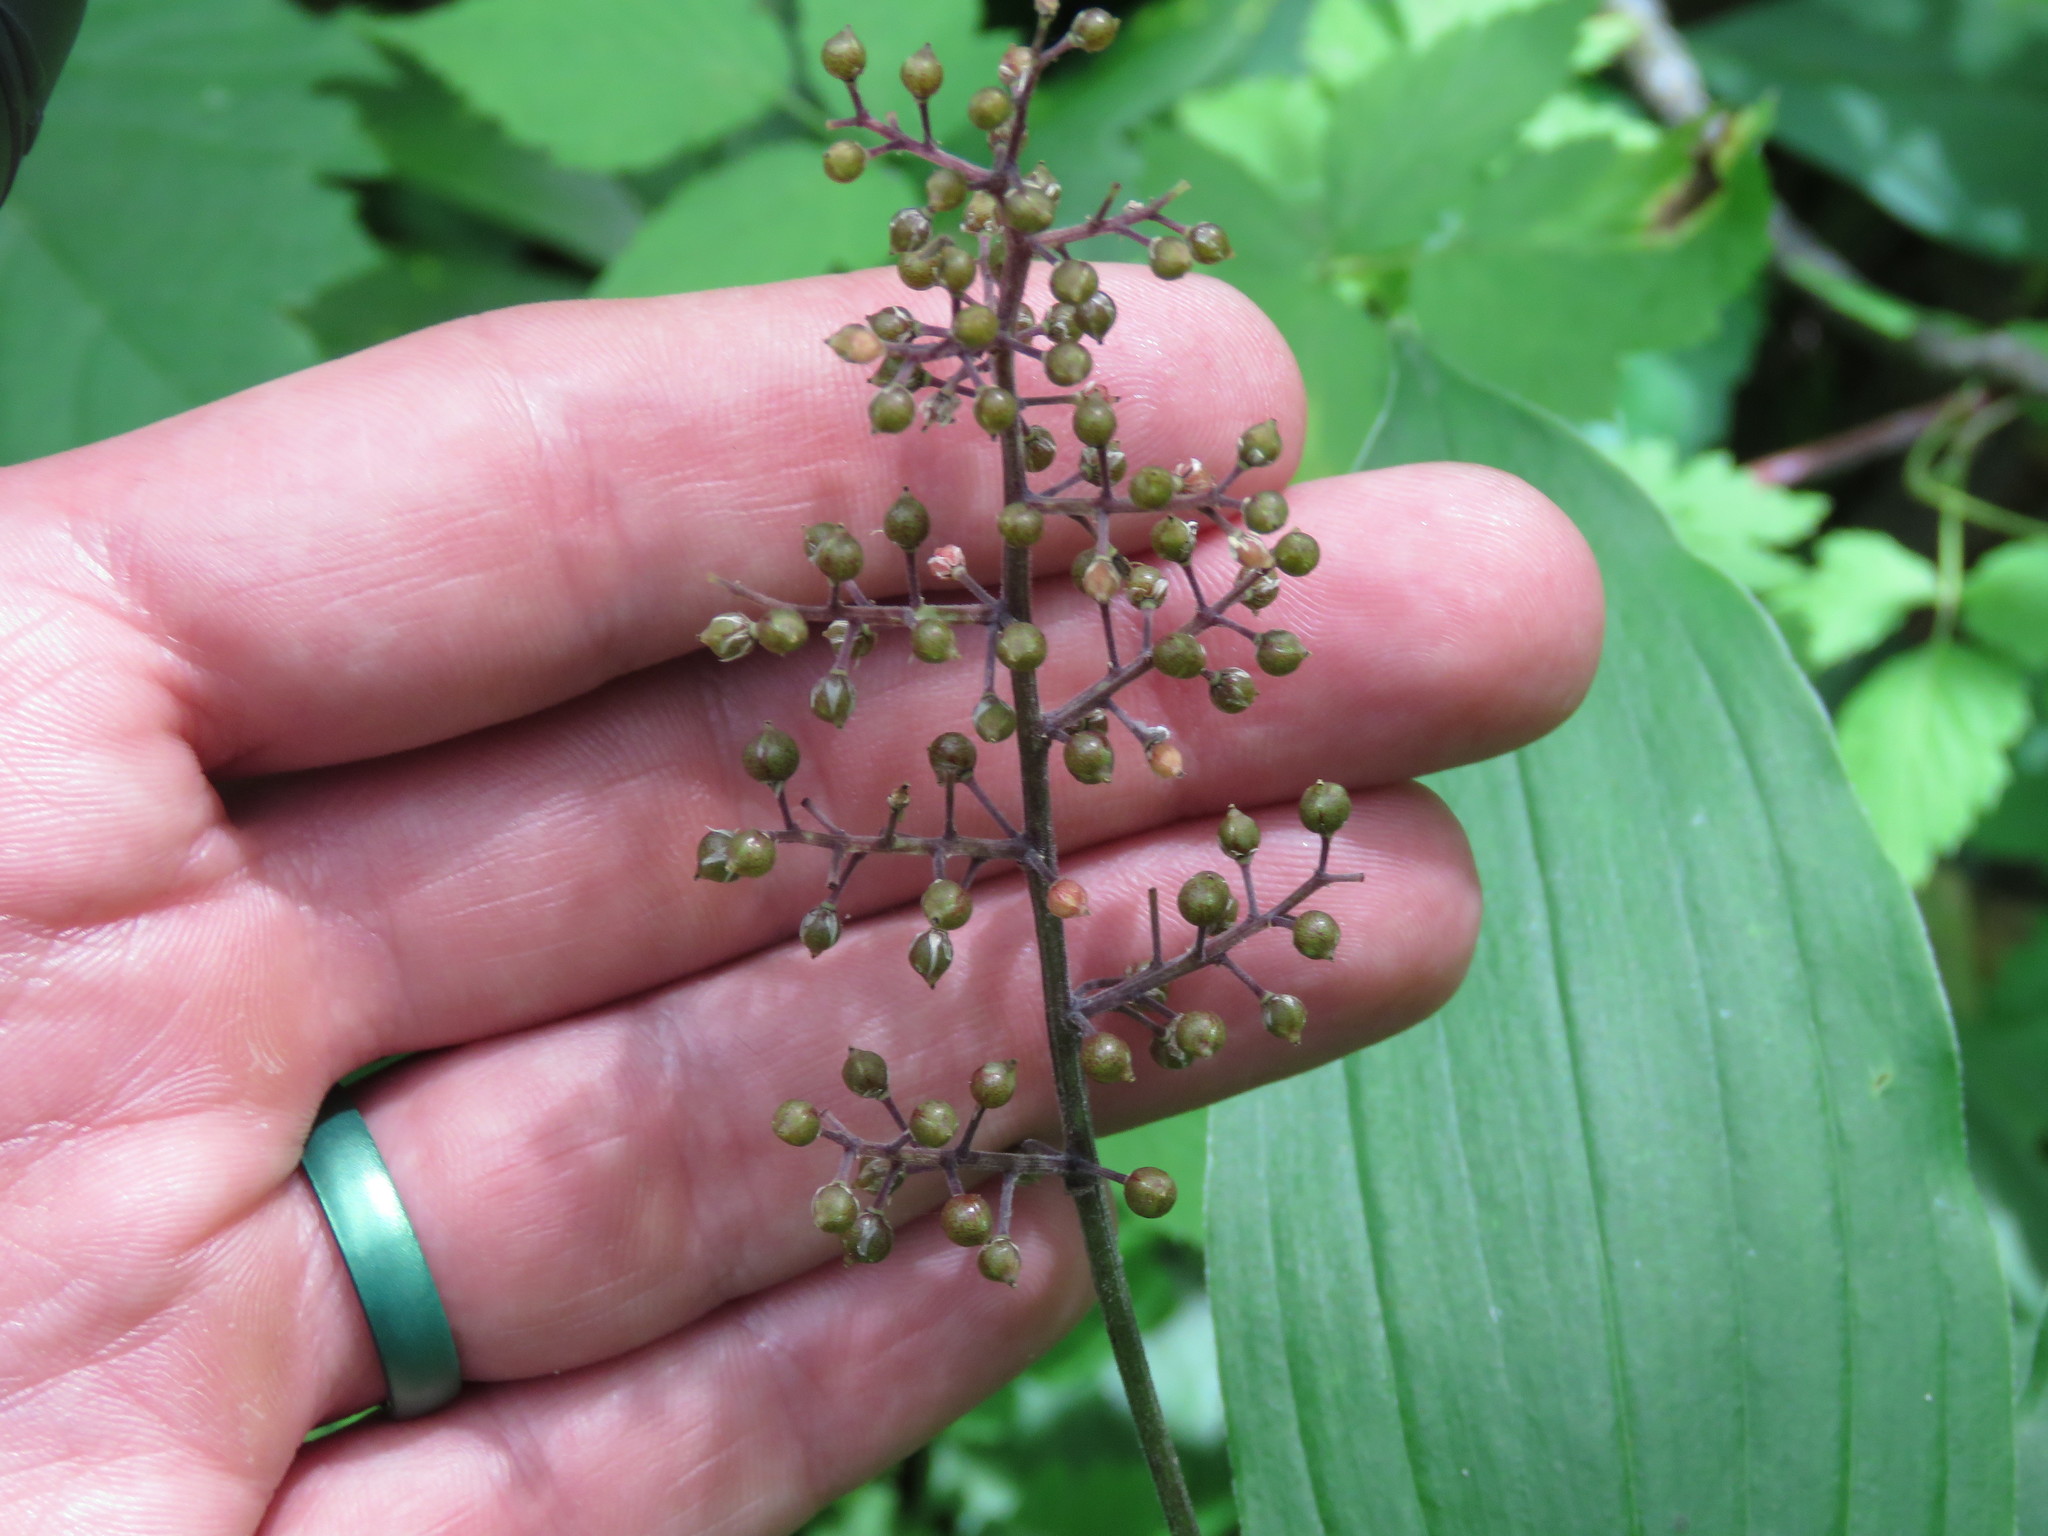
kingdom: Plantae
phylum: Tracheophyta
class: Liliopsida
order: Asparagales
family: Asparagaceae
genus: Maianthemum
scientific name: Maianthemum racemosum
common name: False spikenard
